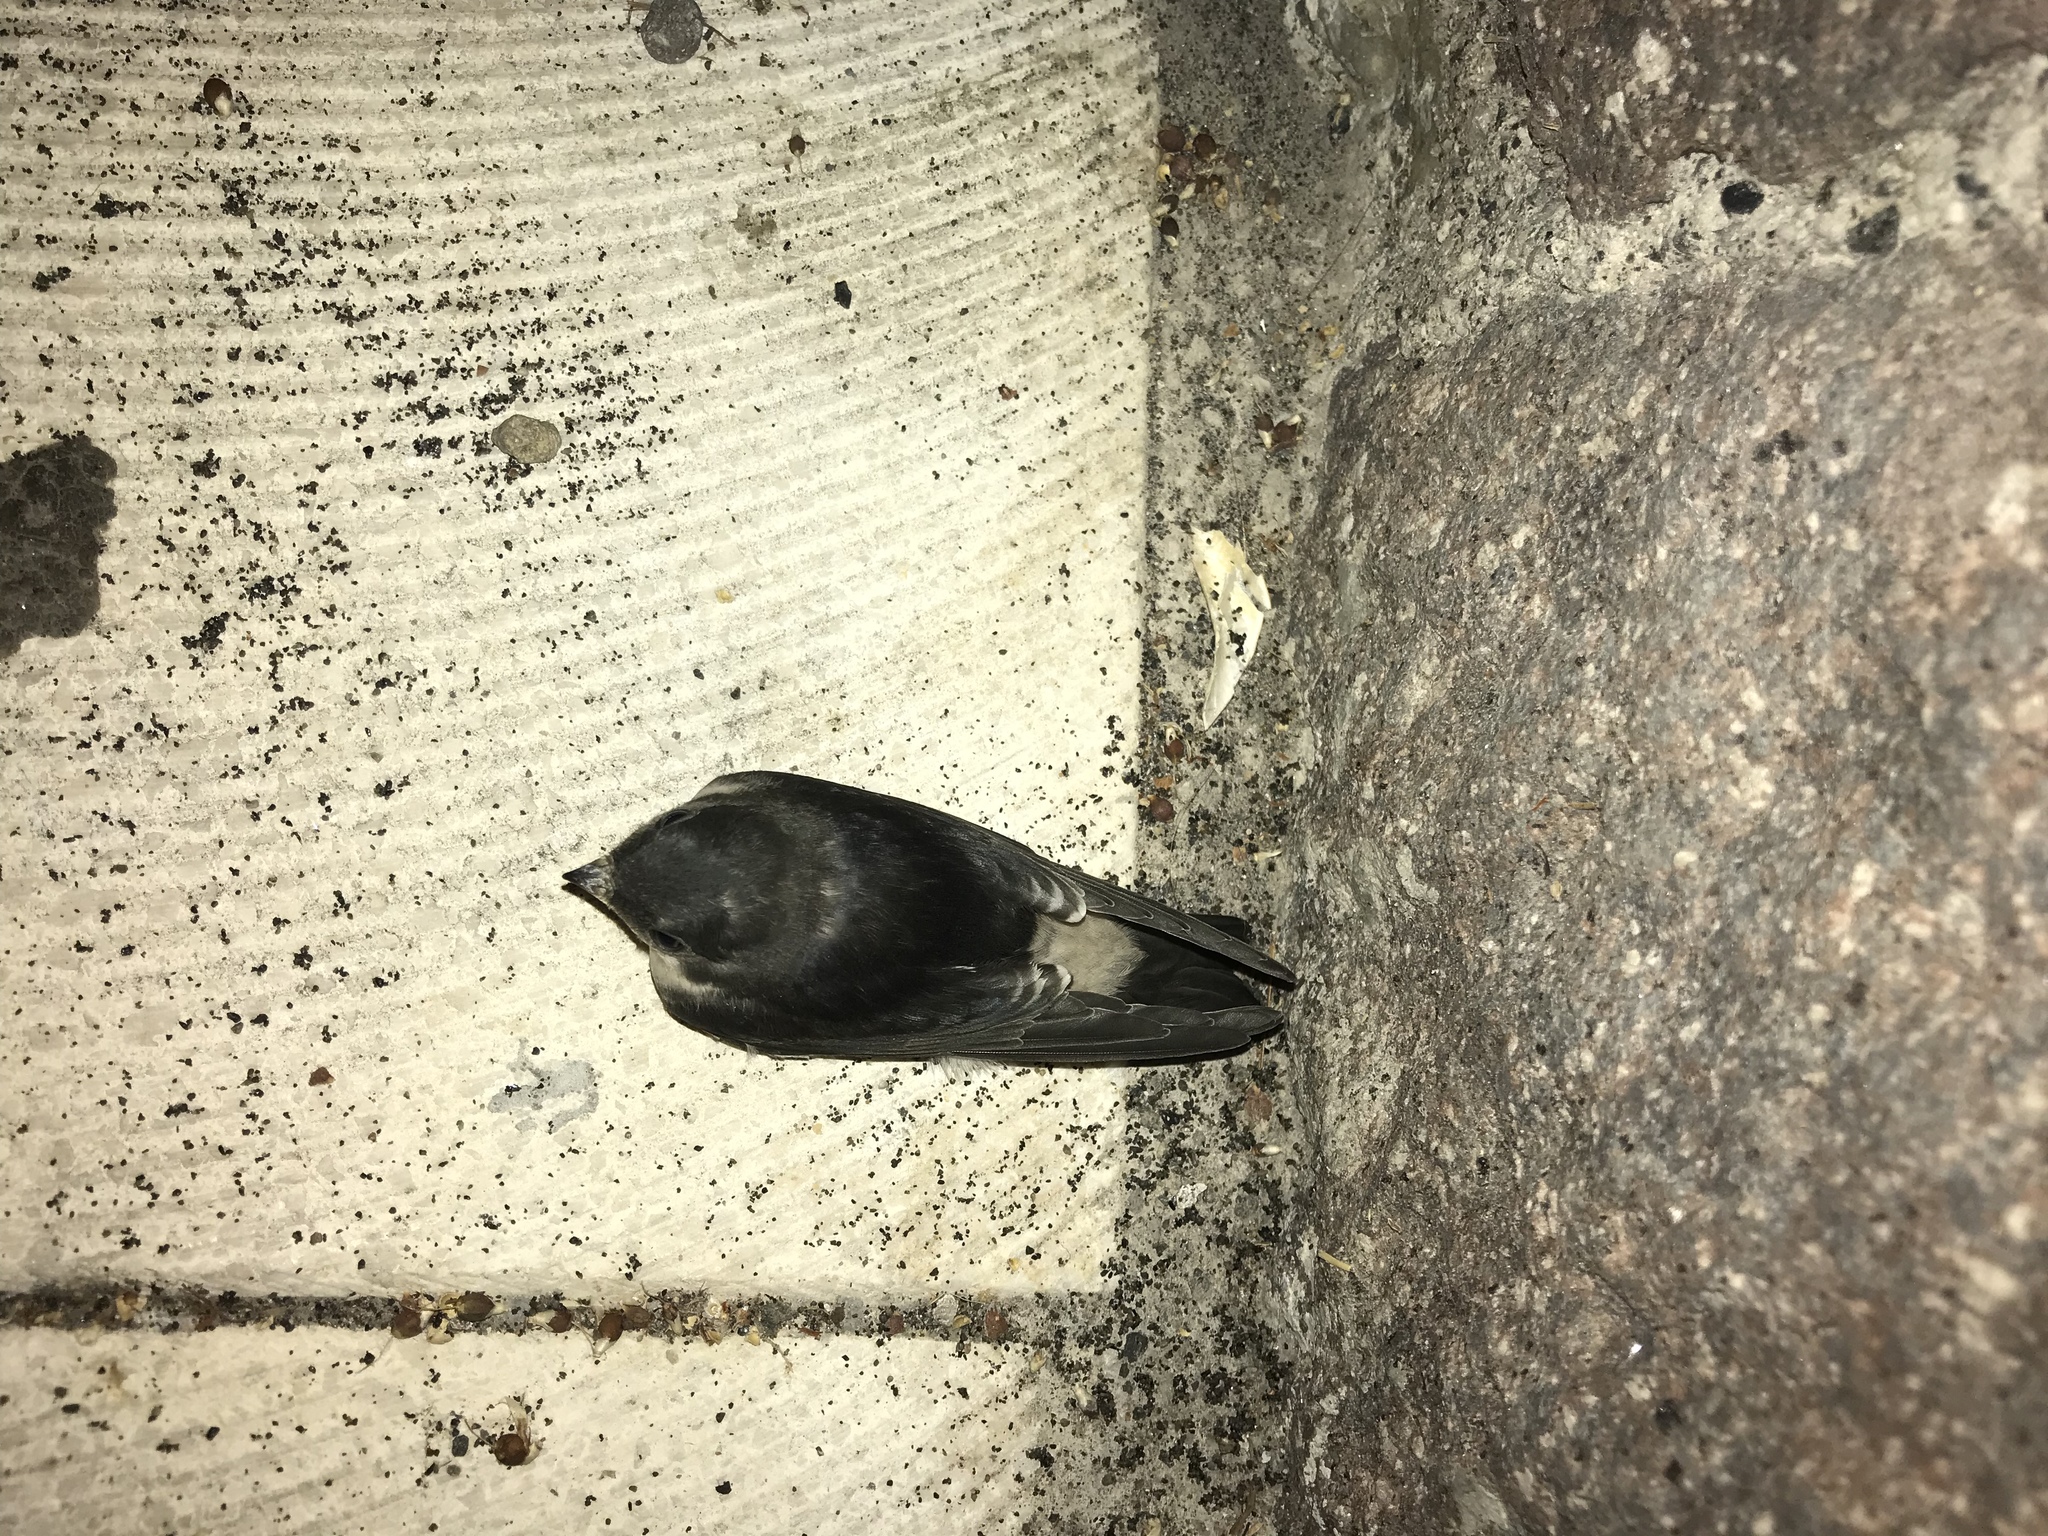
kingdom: Animalia
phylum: Chordata
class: Aves
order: Passeriformes
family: Hirundinidae
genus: Delichon
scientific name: Delichon urbicum
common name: Common house martin
